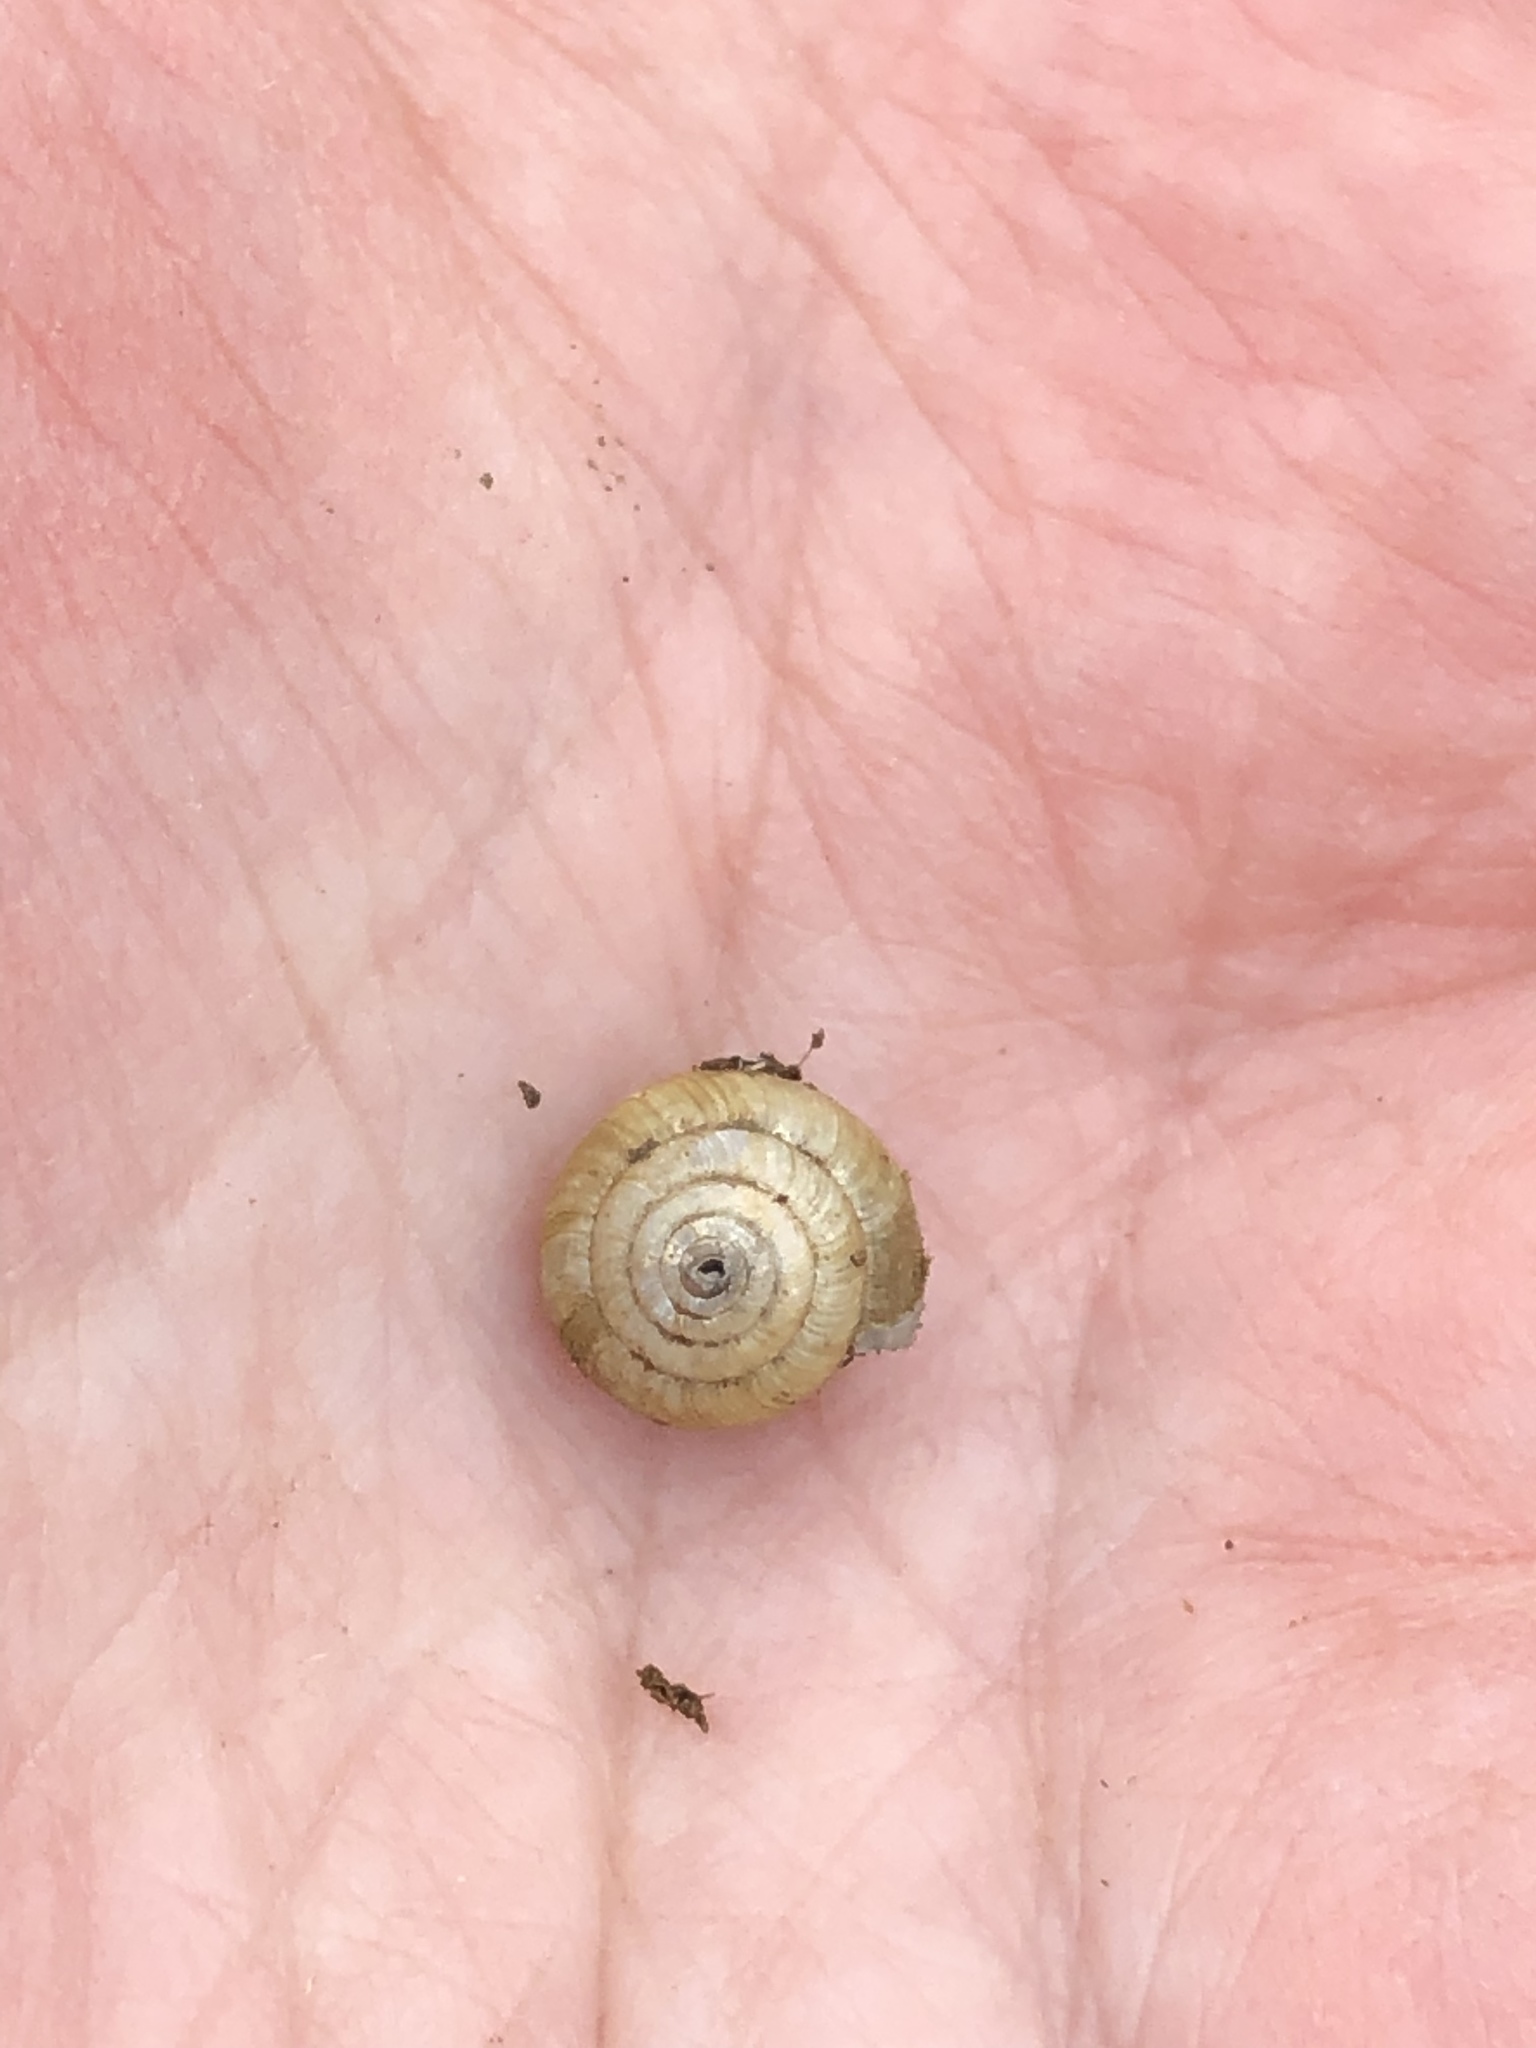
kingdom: Animalia
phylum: Mollusca
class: Gastropoda
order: Stylommatophora
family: Gastrodontidae
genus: Ventridens
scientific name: Ventridens ligera
